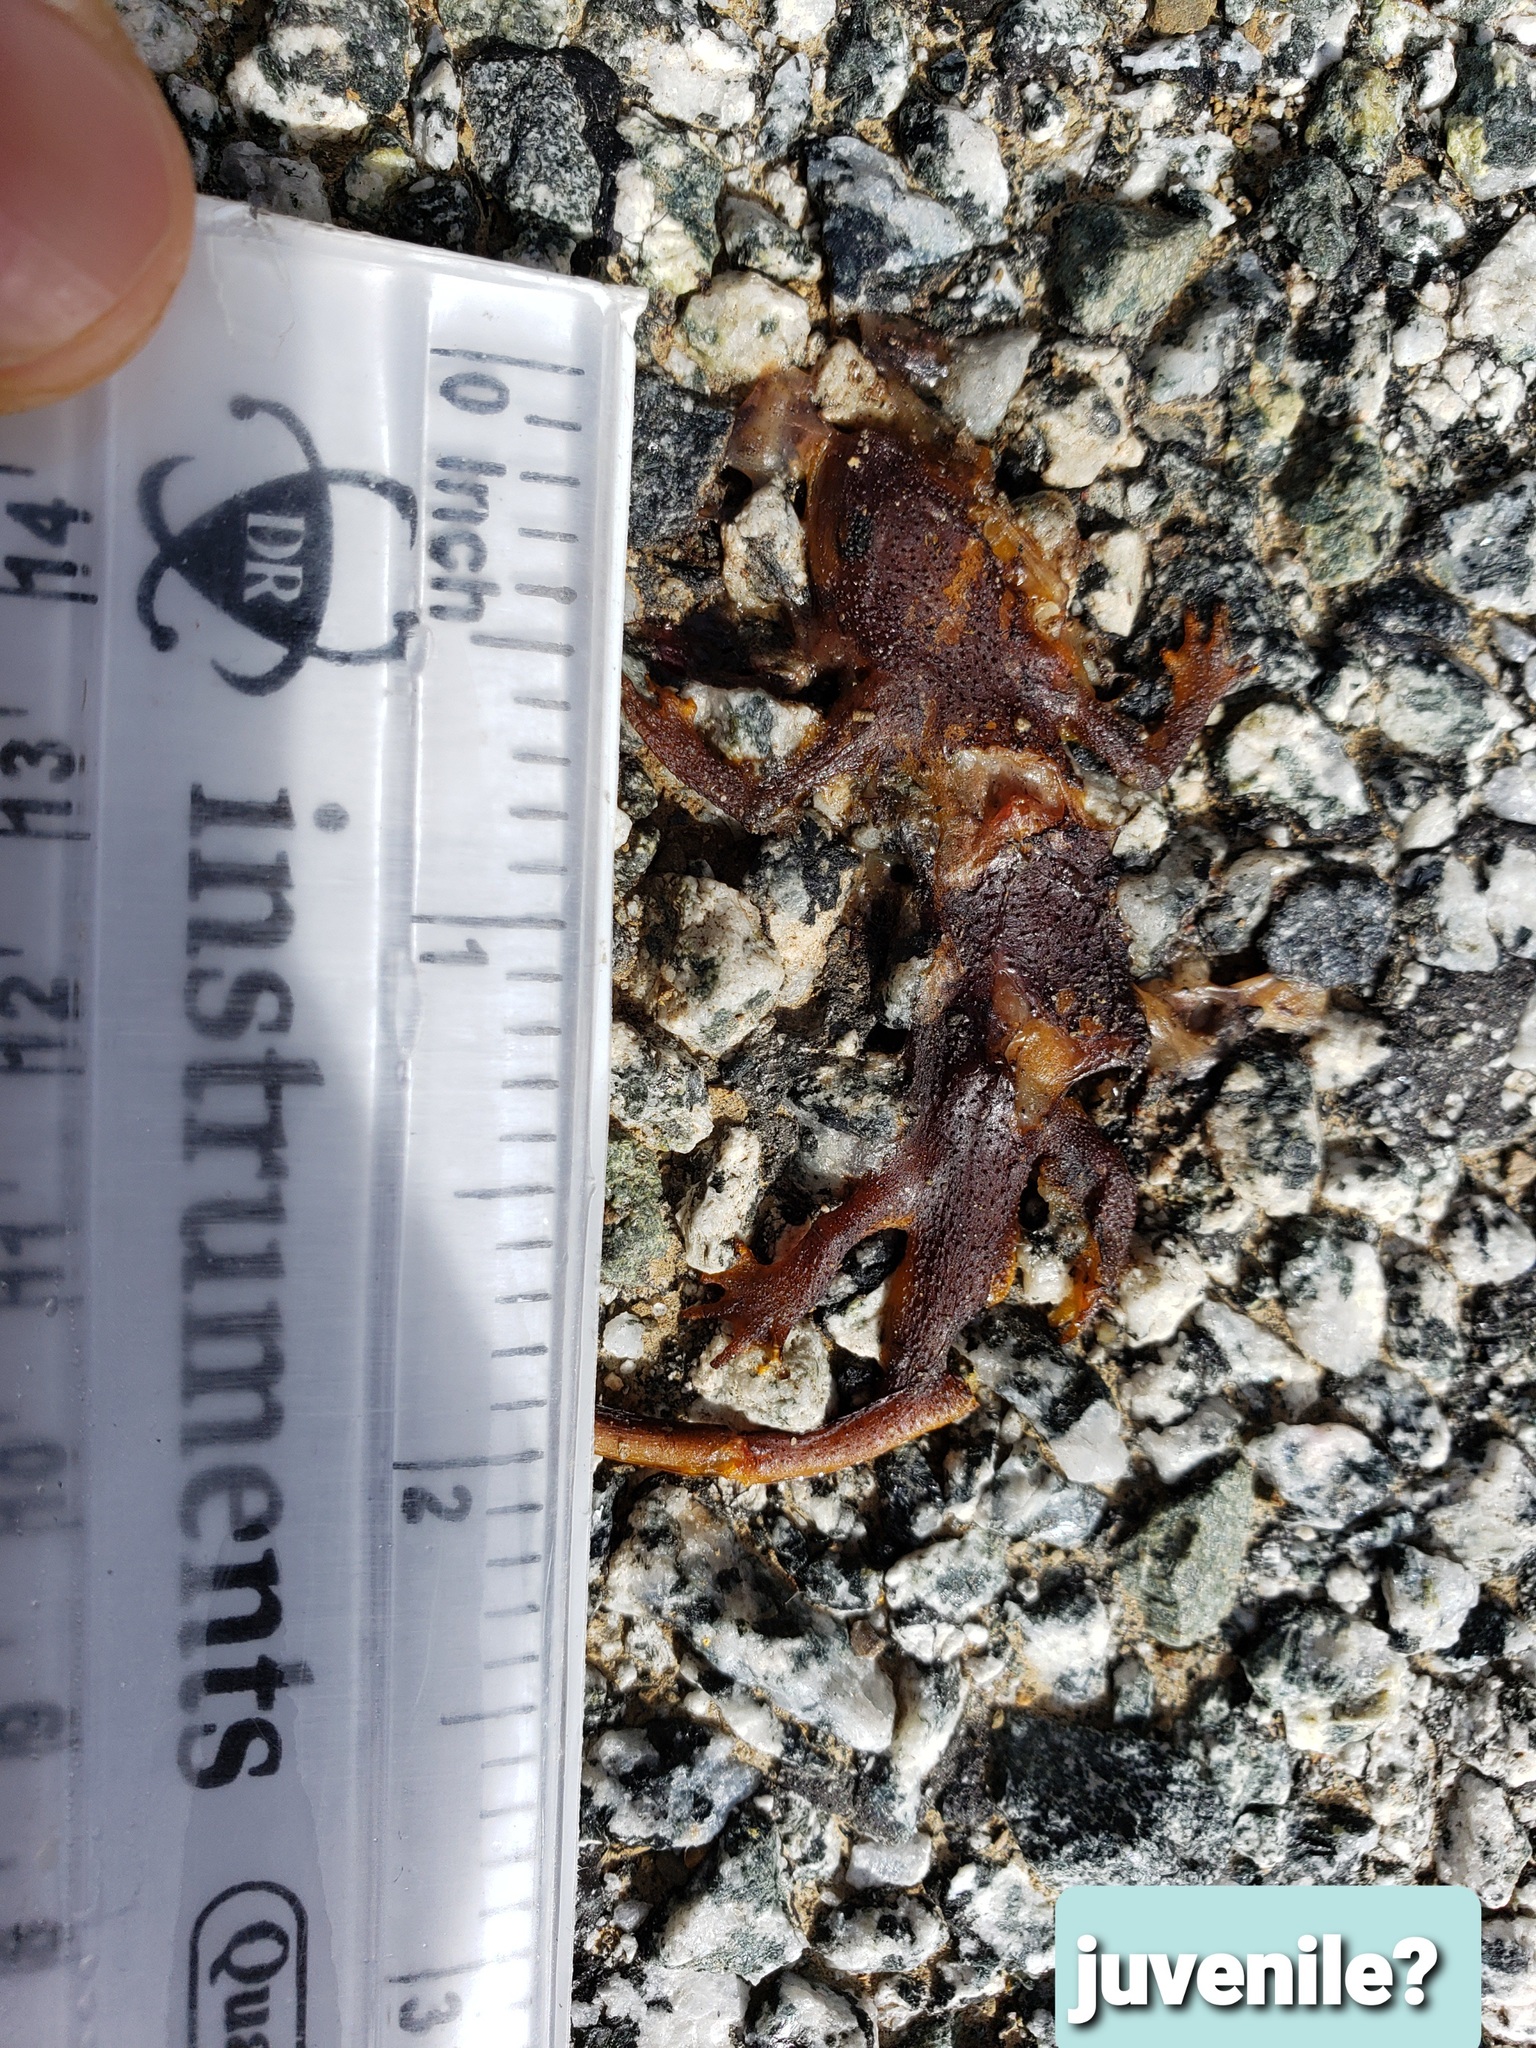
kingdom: Animalia
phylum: Chordata
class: Amphibia
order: Caudata
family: Salamandridae
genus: Taricha
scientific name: Taricha
